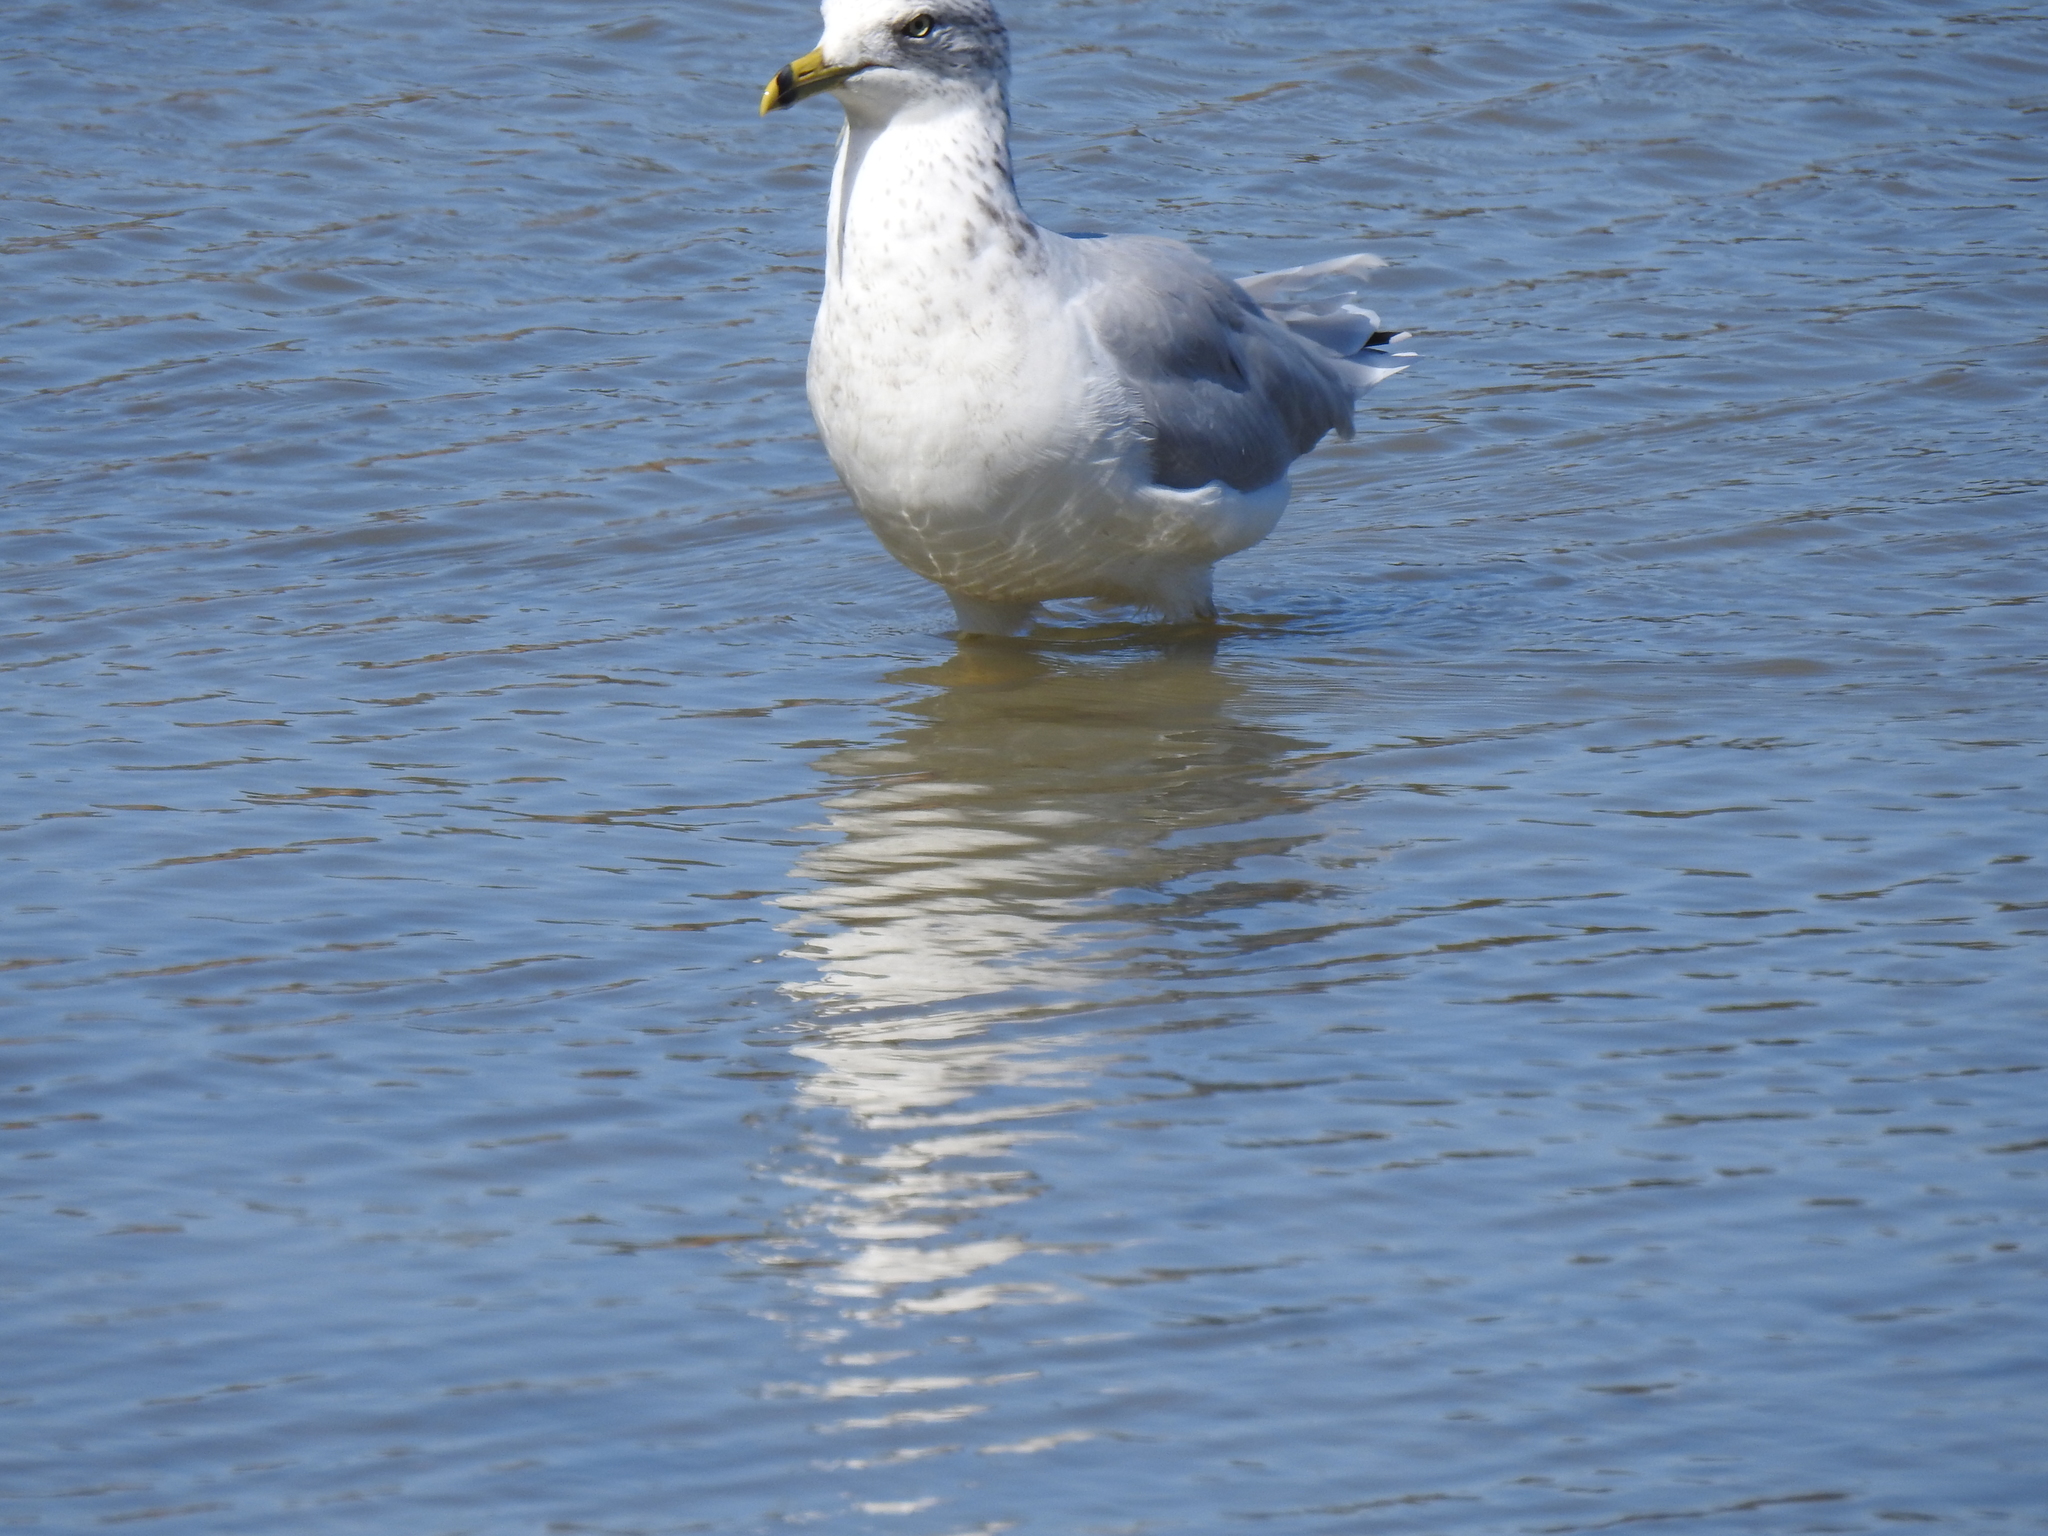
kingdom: Animalia
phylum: Chordata
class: Aves
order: Charadriiformes
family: Laridae
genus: Larus
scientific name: Larus delawarensis
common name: Ring-billed gull
